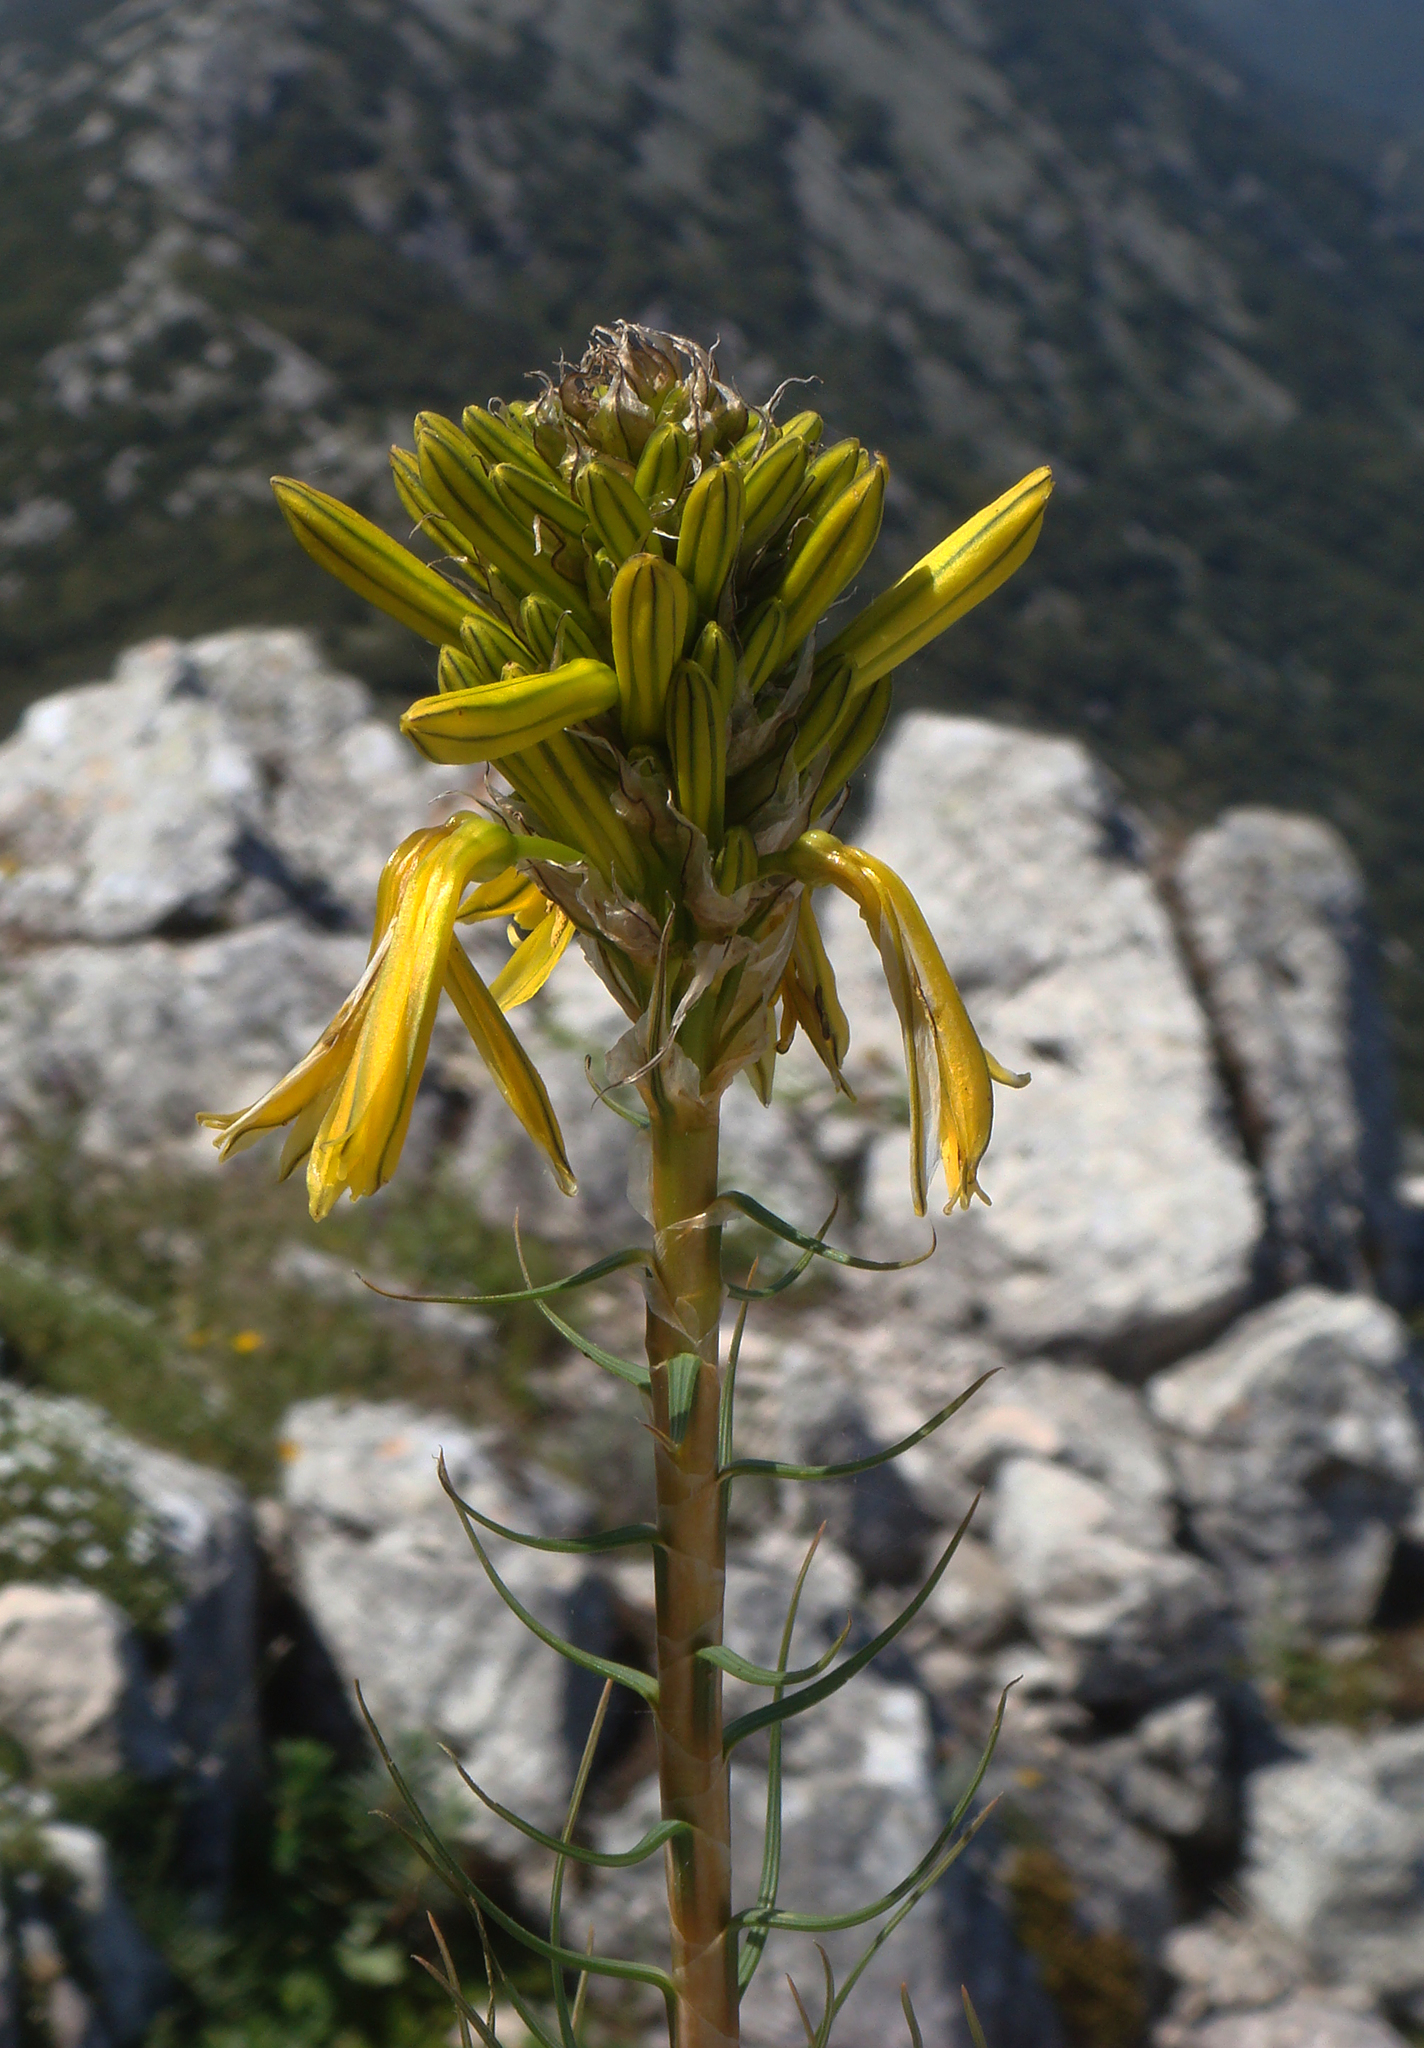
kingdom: Plantae
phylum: Tracheophyta
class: Liliopsida
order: Asparagales
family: Asphodelaceae
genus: Asphodeline
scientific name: Asphodeline lutea
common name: Yellow asphodel
